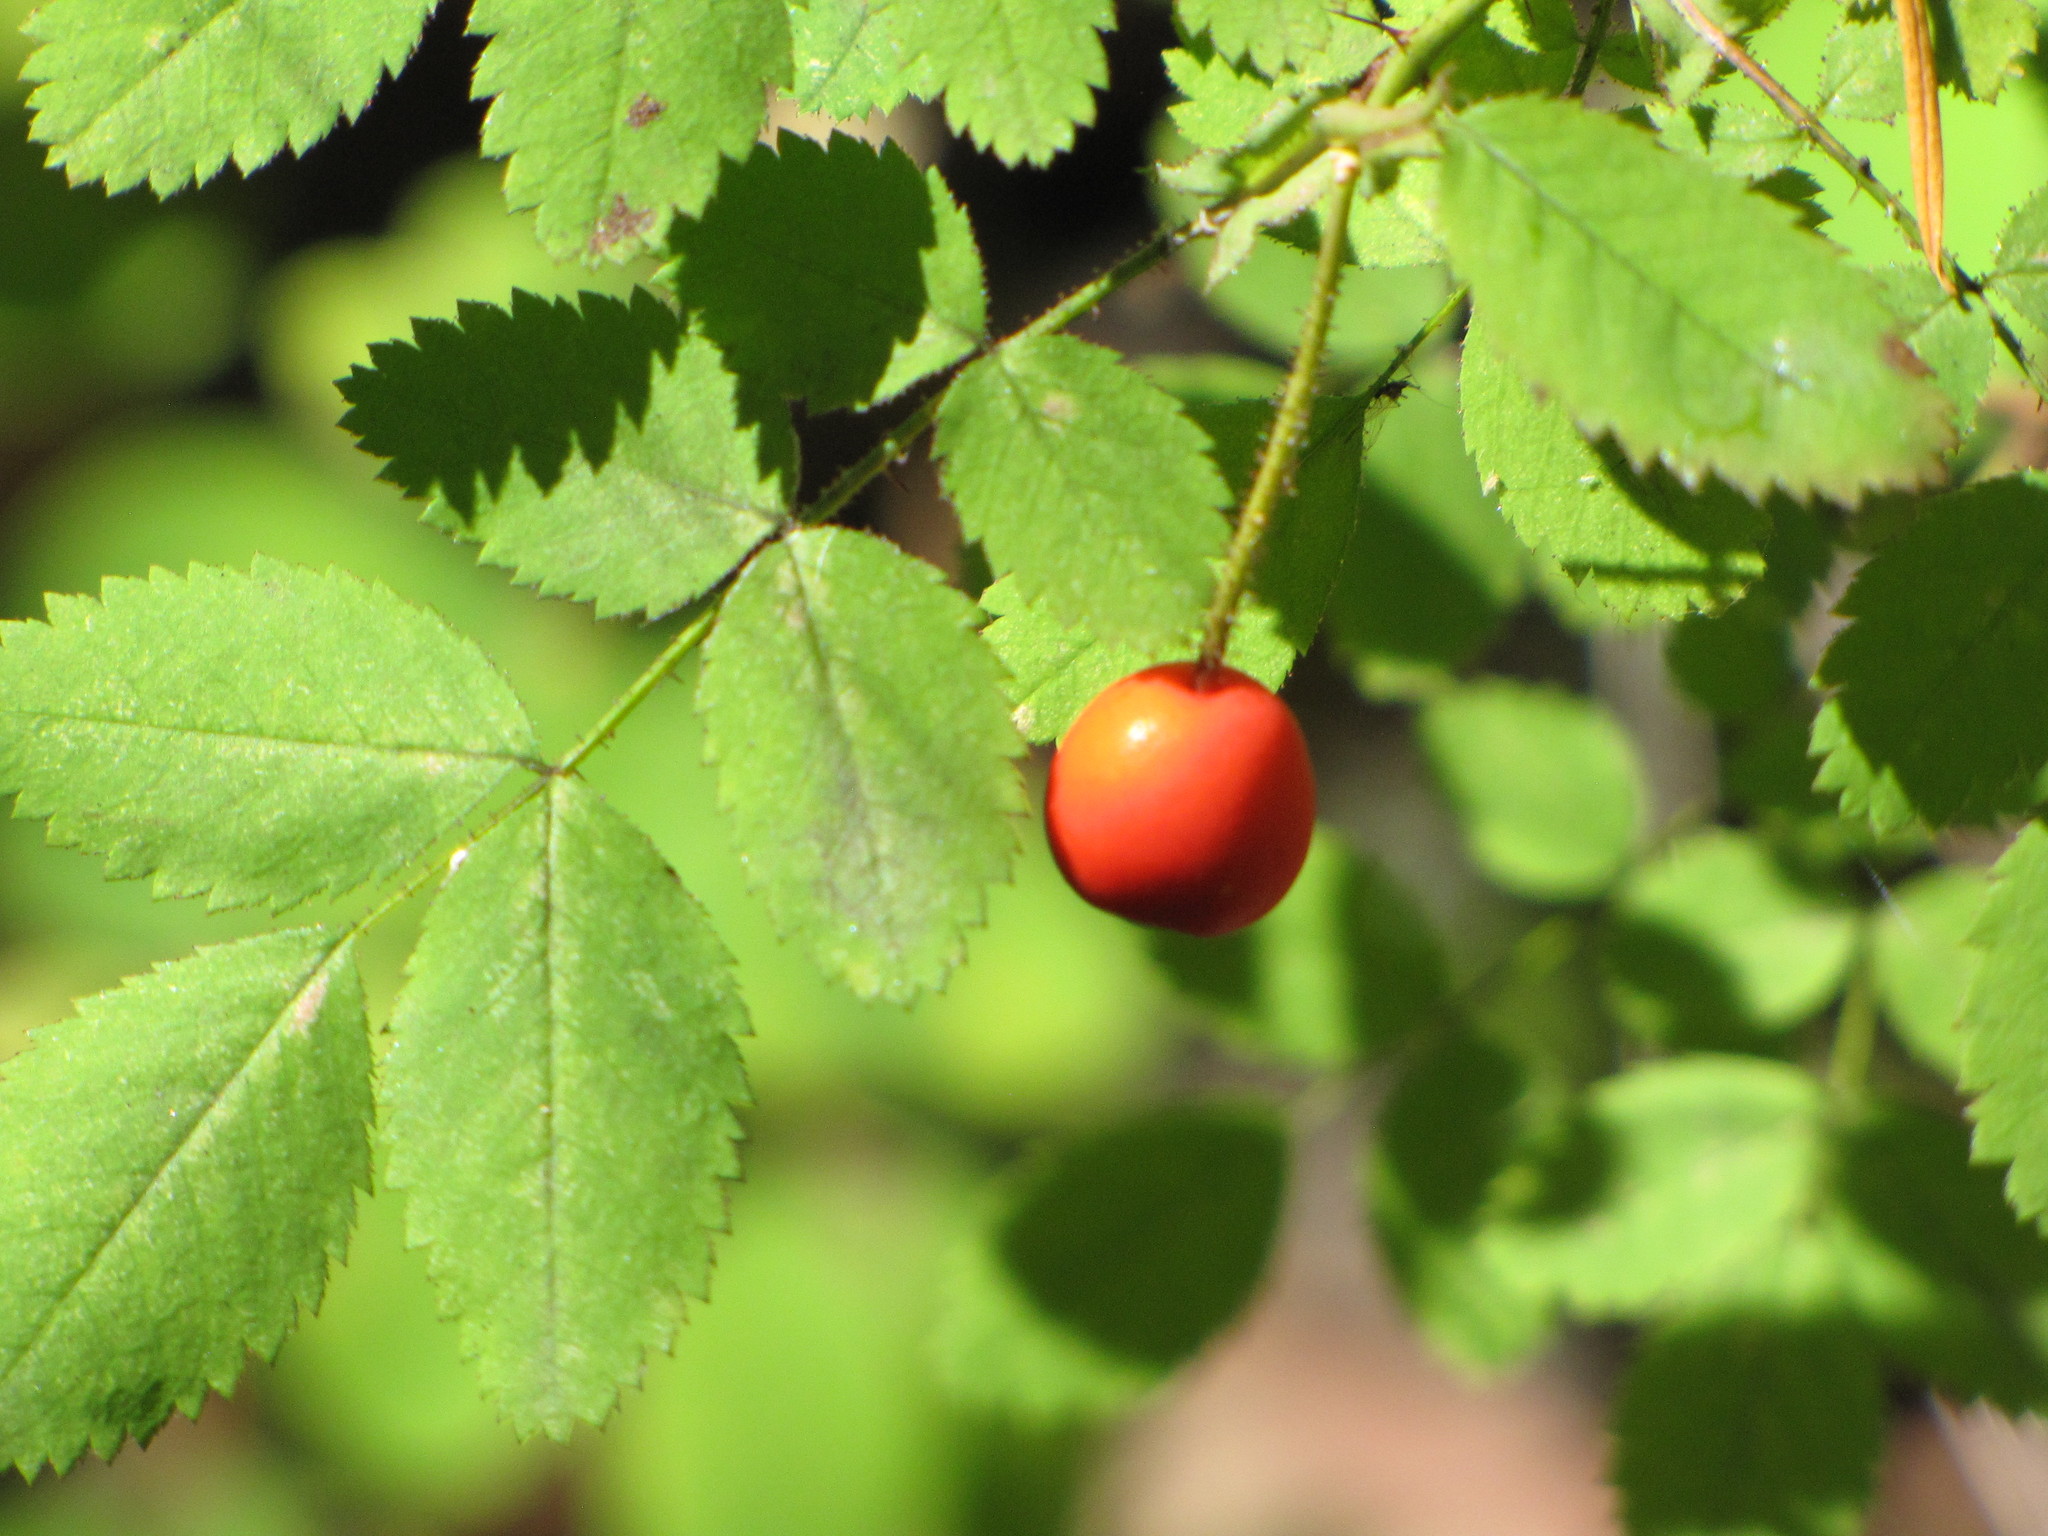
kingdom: Plantae
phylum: Tracheophyta
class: Magnoliopsida
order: Rosales
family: Rosaceae
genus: Rosa
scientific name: Rosa gymnocarpa
